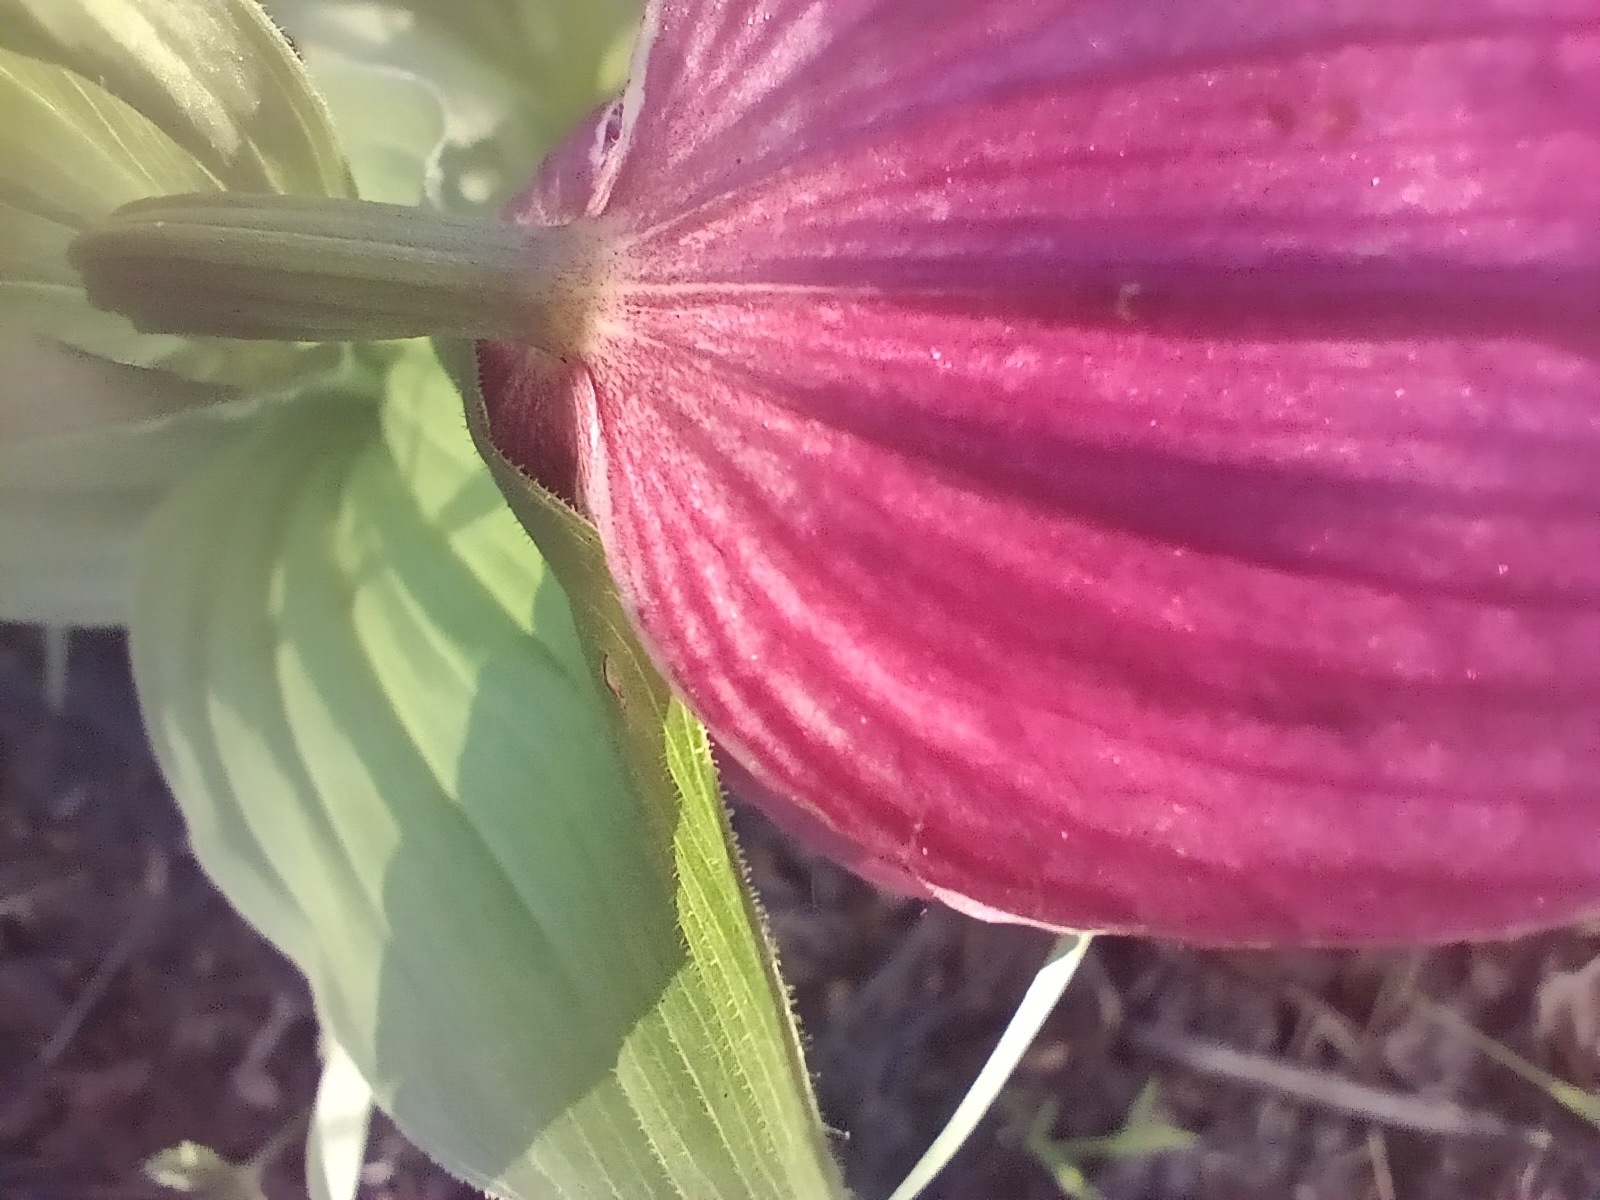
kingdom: Plantae
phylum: Tracheophyta
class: Liliopsida
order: Asparagales
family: Orchidaceae
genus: Cypripedium
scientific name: Cypripedium macranthos
